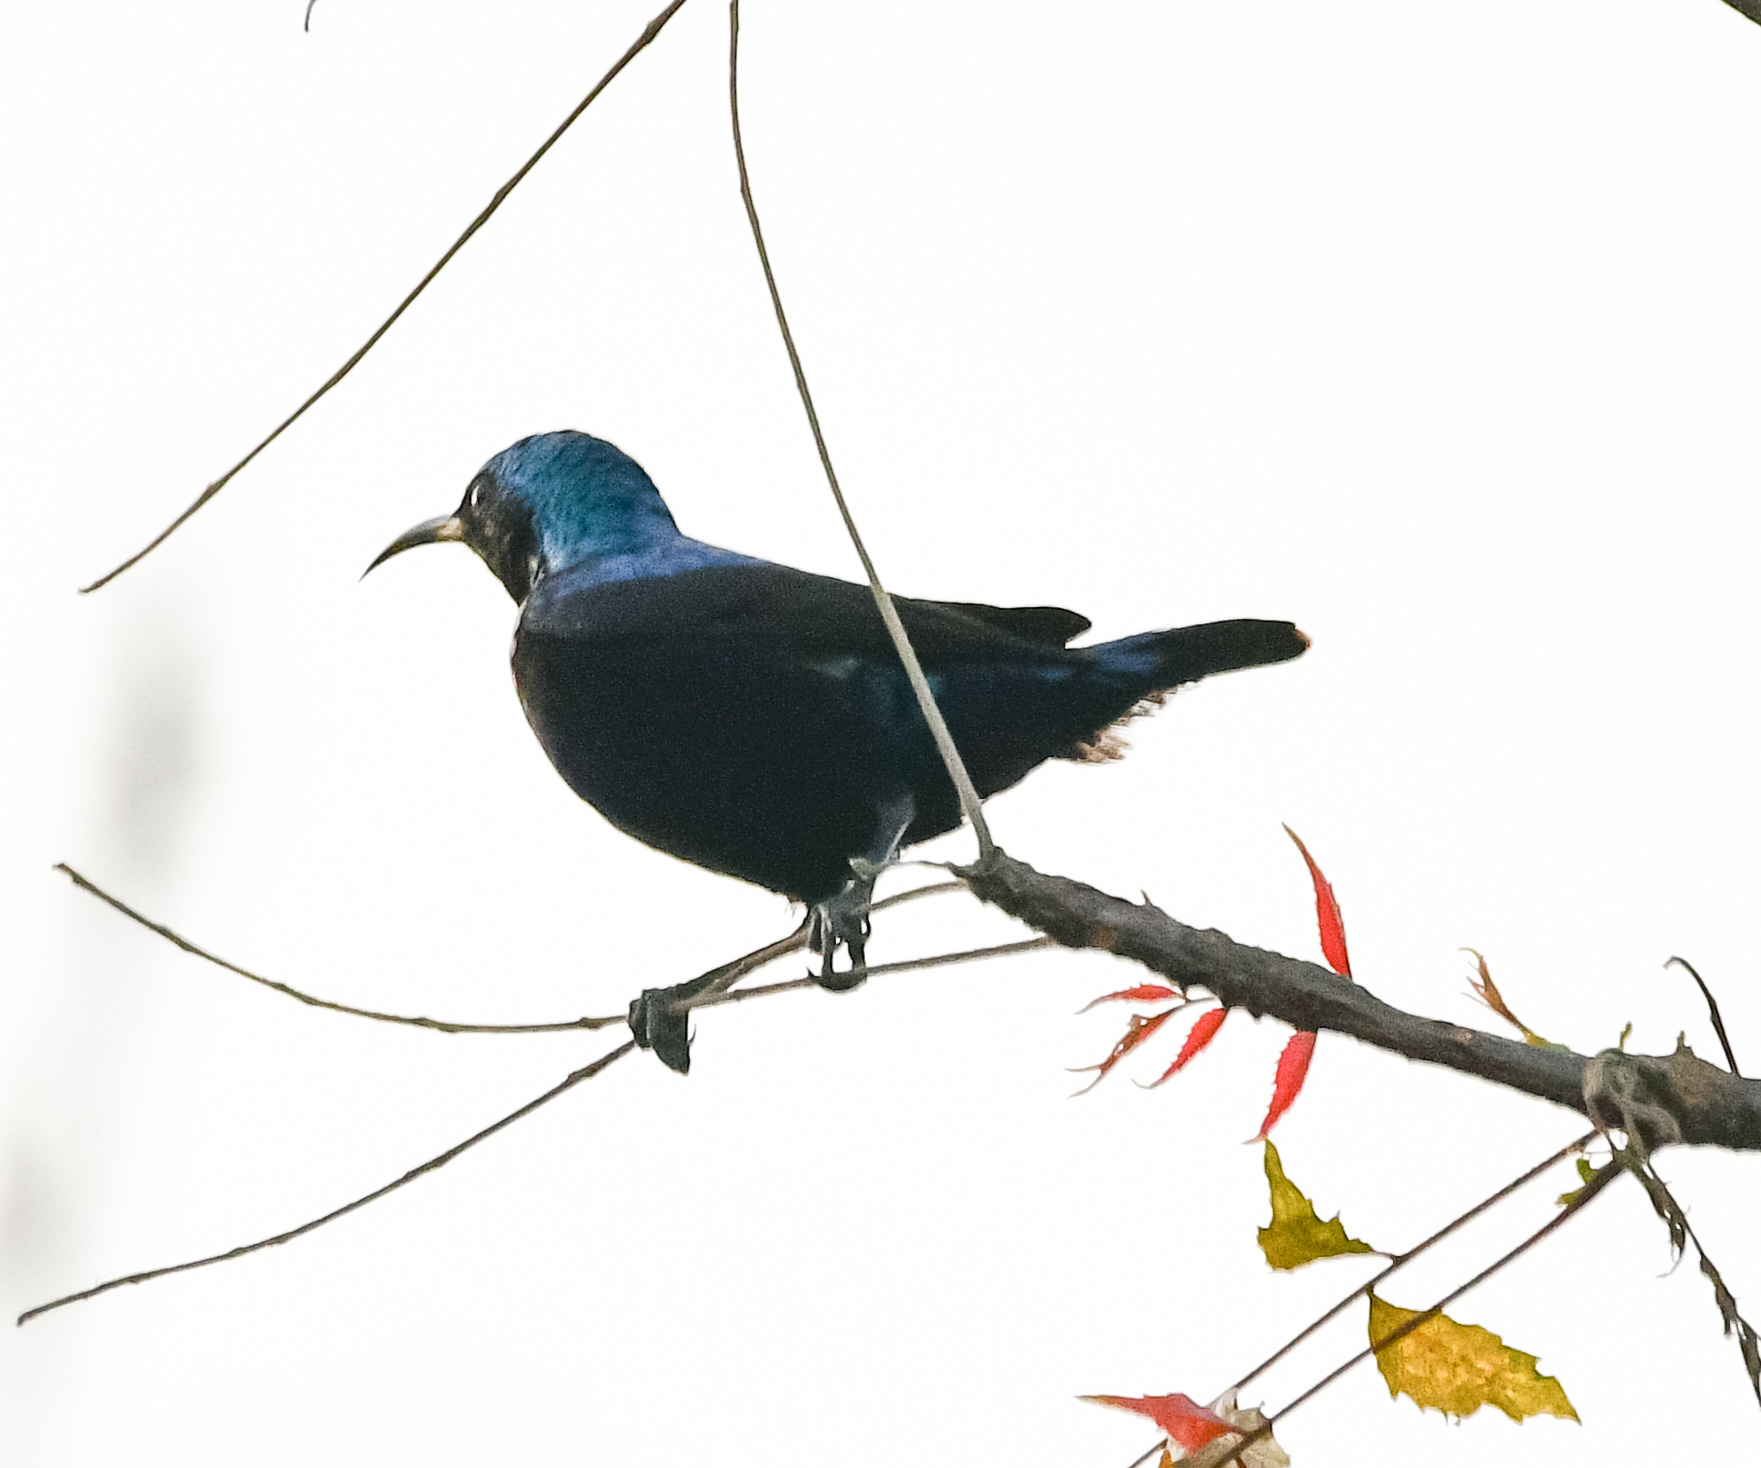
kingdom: Animalia
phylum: Chordata
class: Aves
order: Passeriformes
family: Nectariniidae
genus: Cinnyris
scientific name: Cinnyris asiaticus
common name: Purple sunbird
